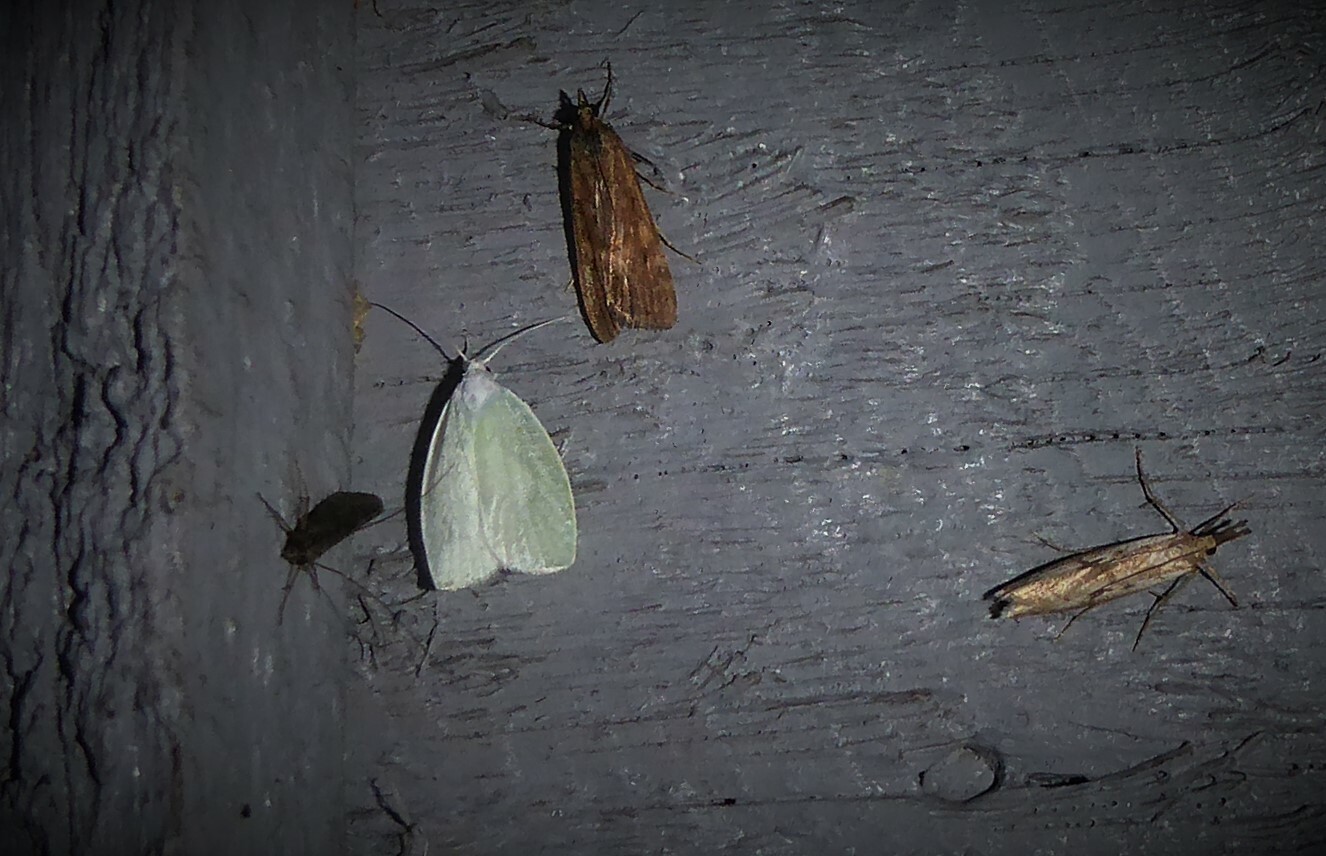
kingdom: Animalia
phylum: Arthropoda
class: Insecta
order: Lepidoptera
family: Oecophoridae
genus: Nymphostola
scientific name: Nymphostola galactina
